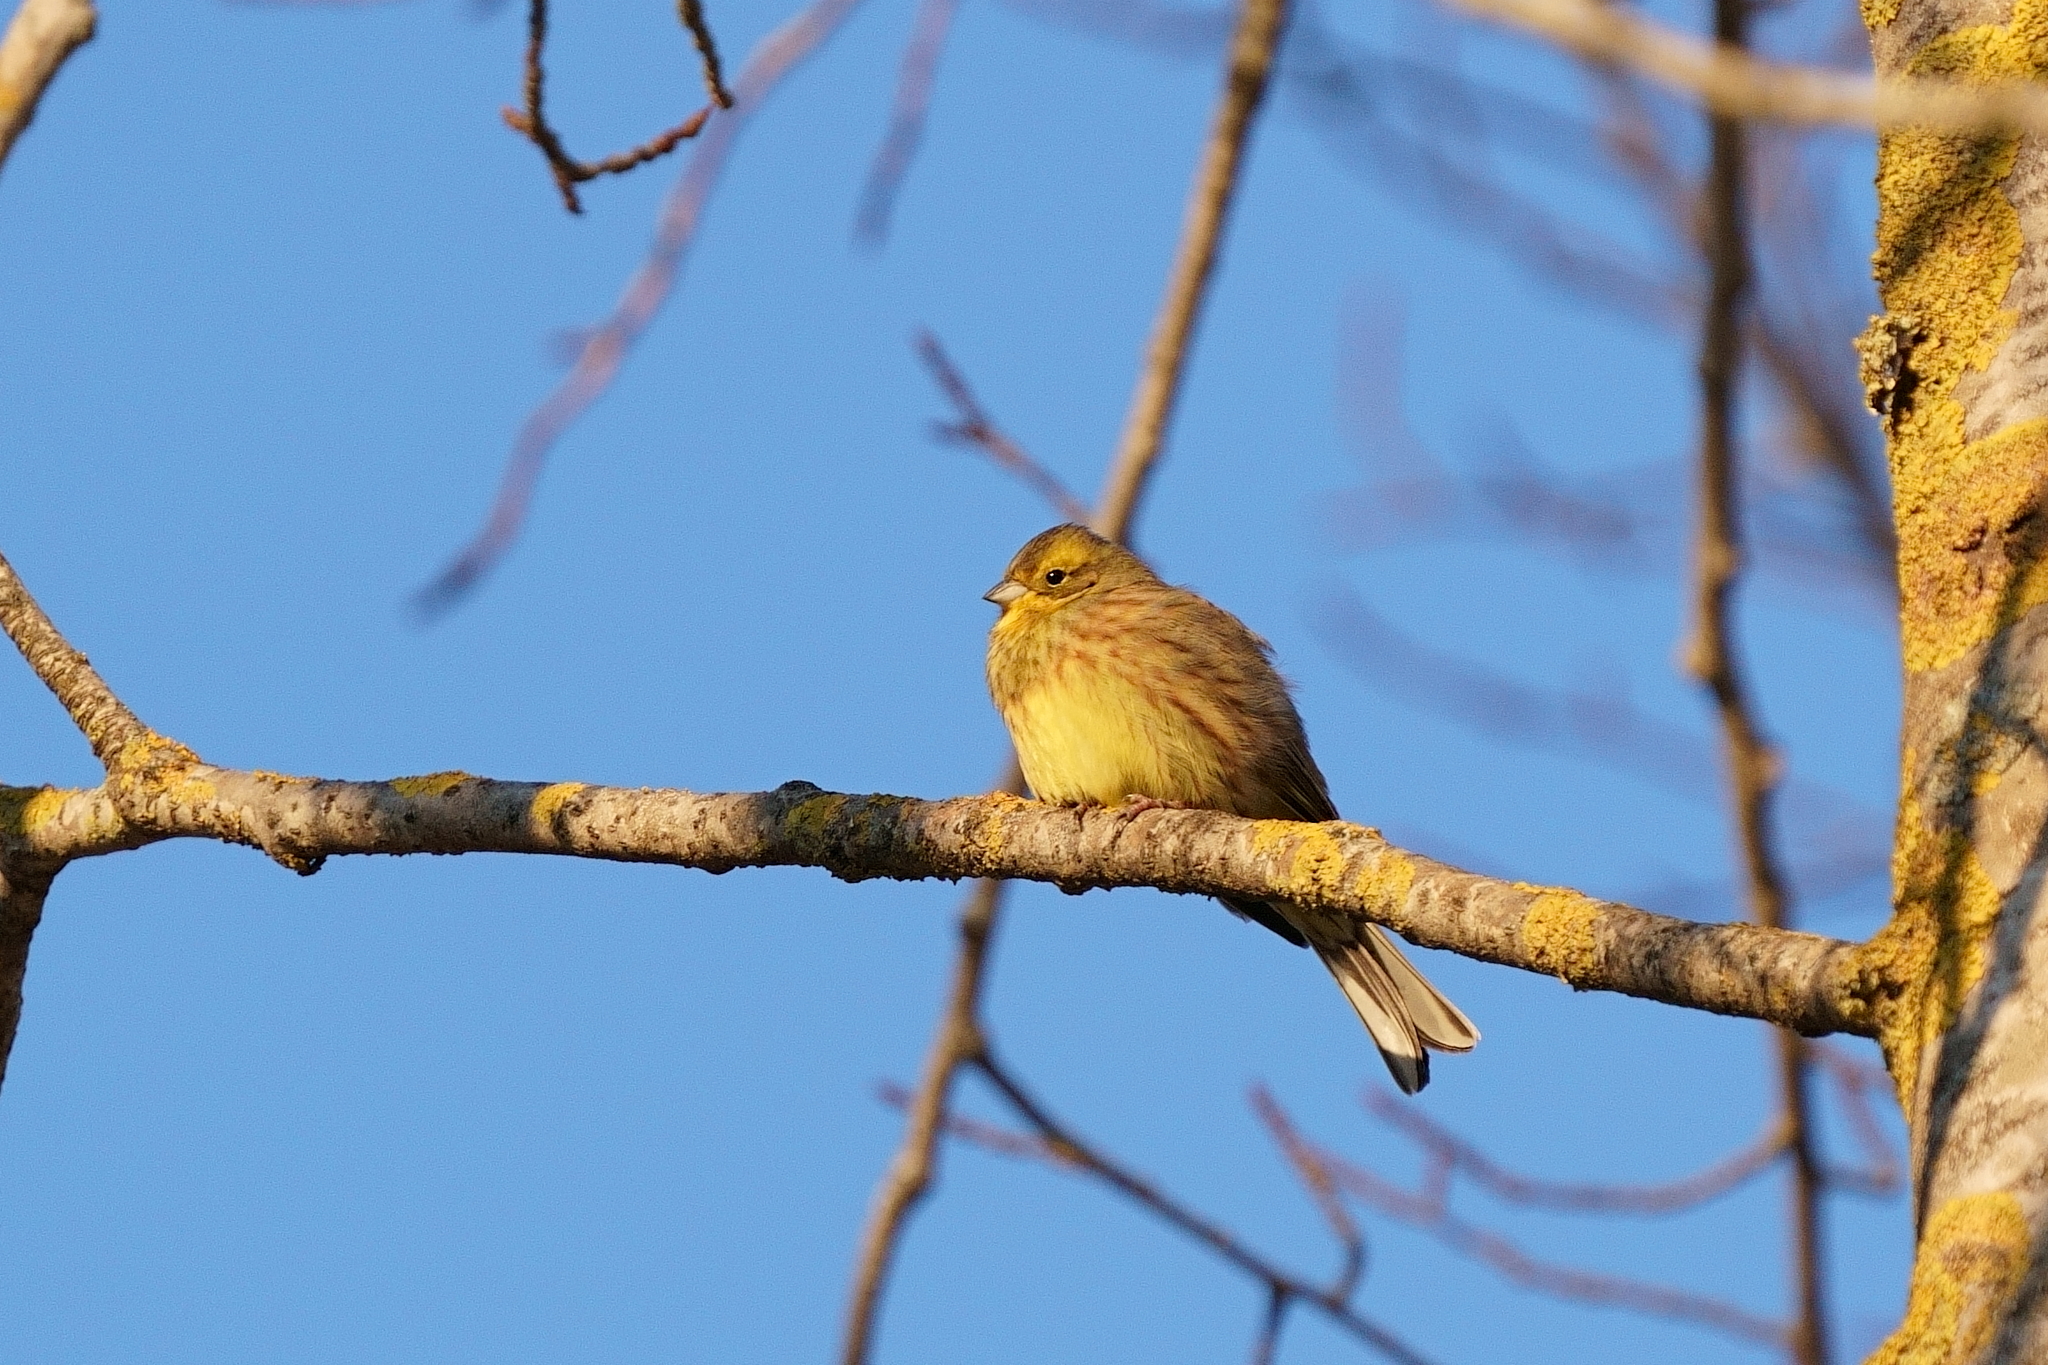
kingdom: Animalia
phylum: Chordata
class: Aves
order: Passeriformes
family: Emberizidae
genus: Emberiza
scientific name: Emberiza citrinella
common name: Yellowhammer
